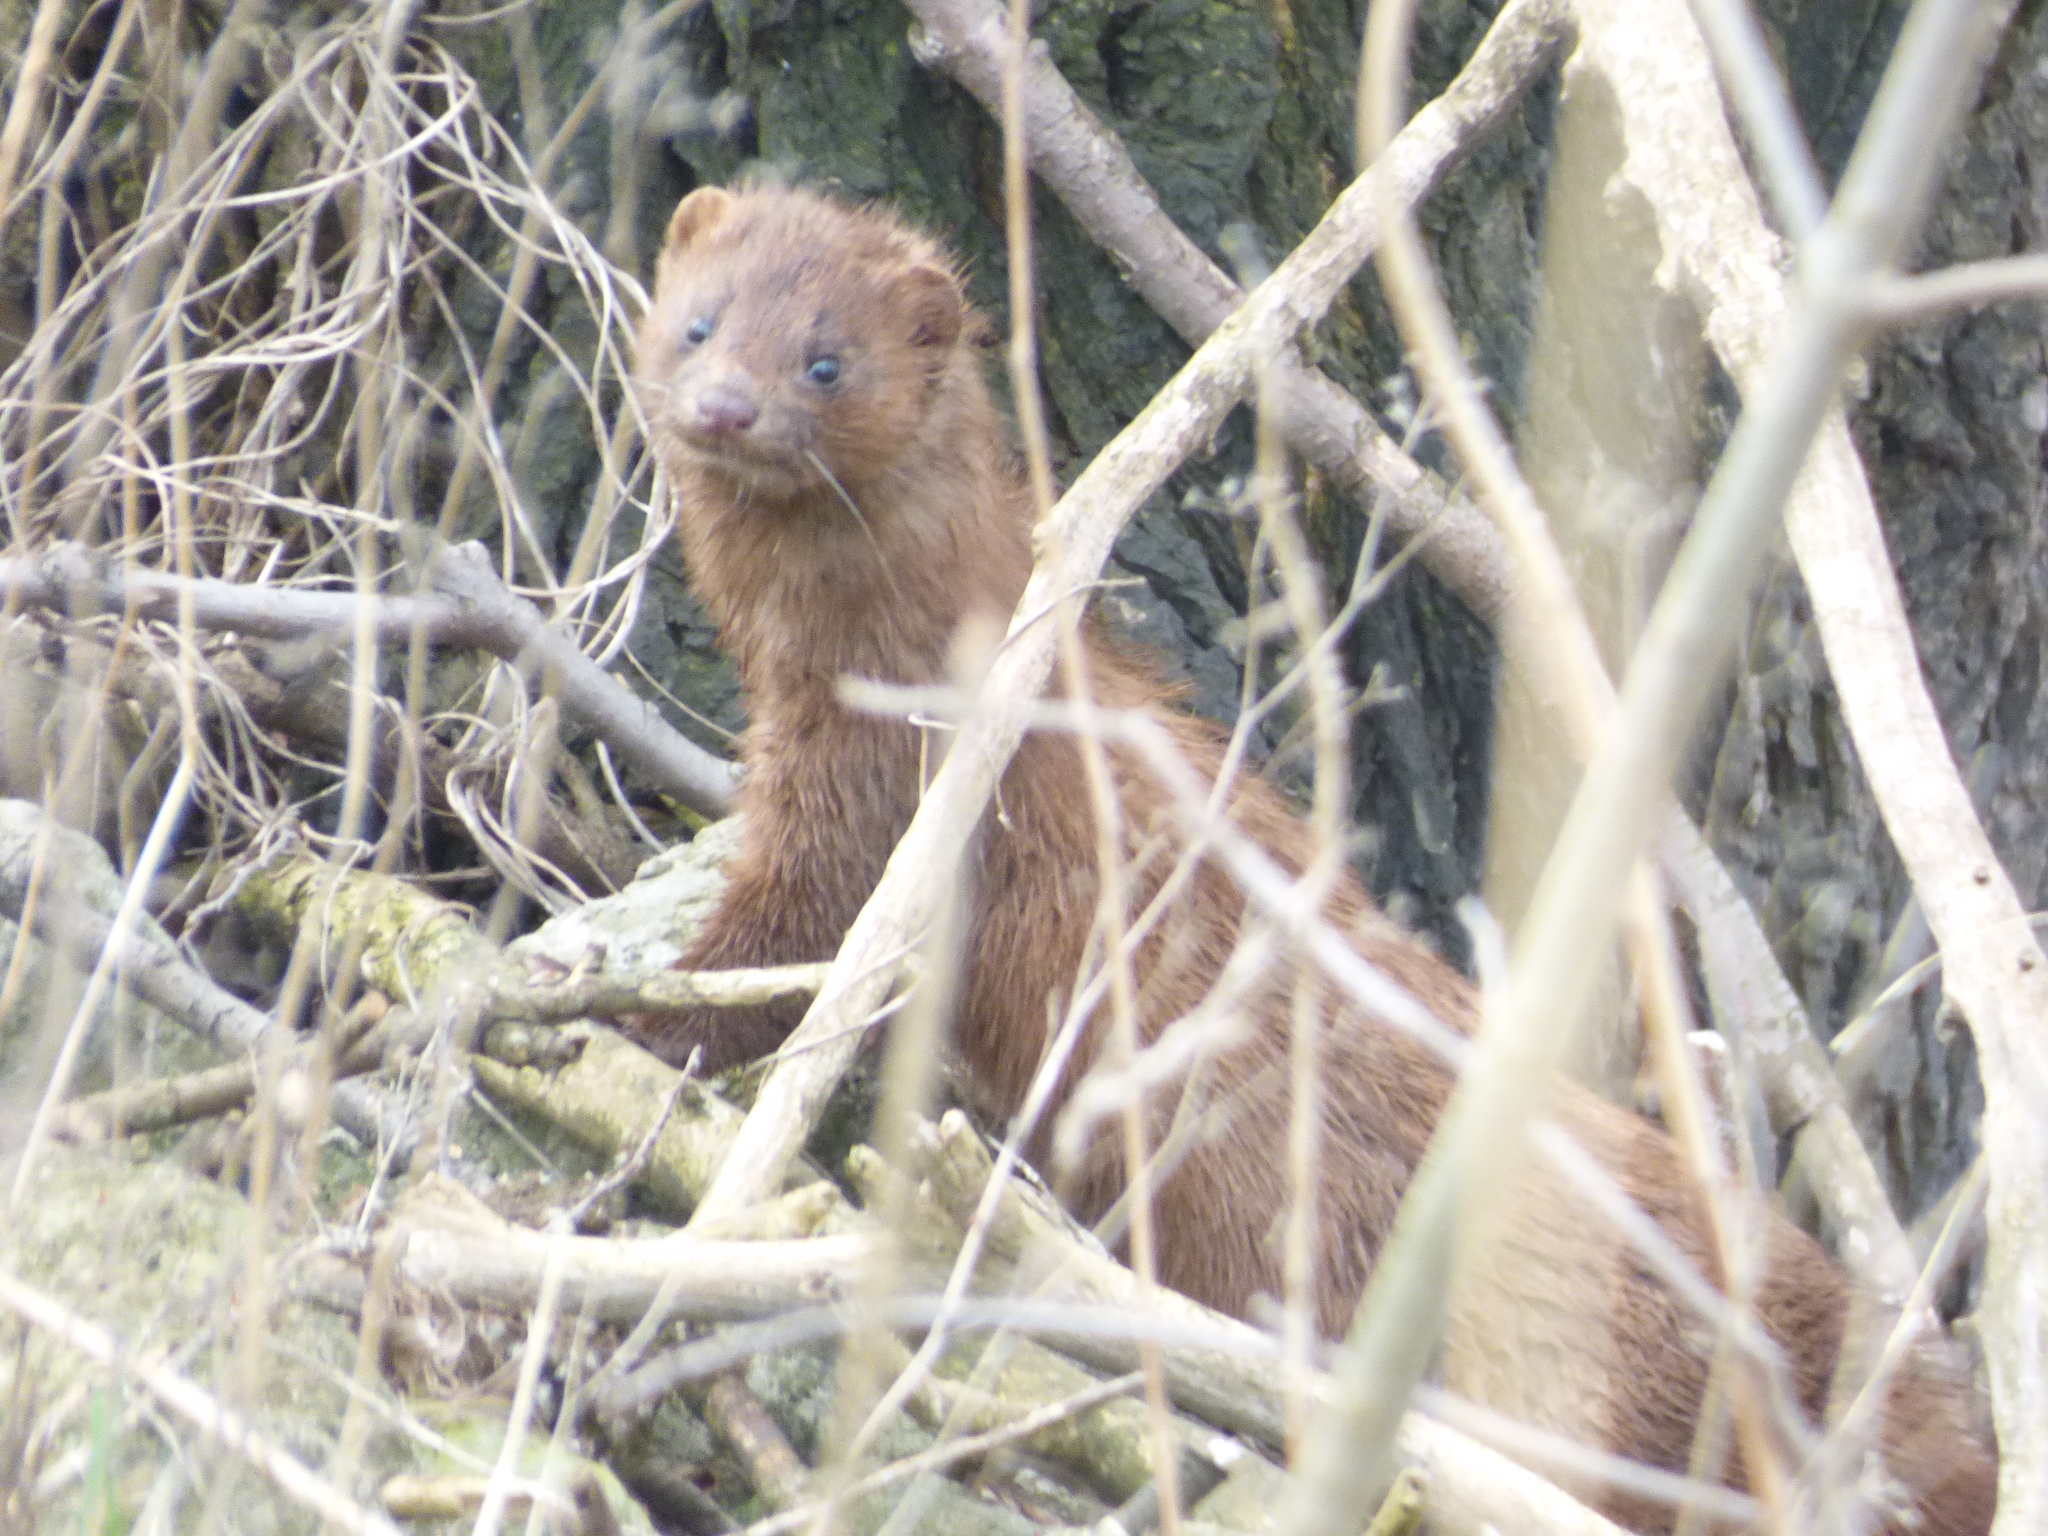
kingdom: Animalia
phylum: Chordata
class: Mammalia
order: Carnivora
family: Mustelidae
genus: Mustela
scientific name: Mustela
